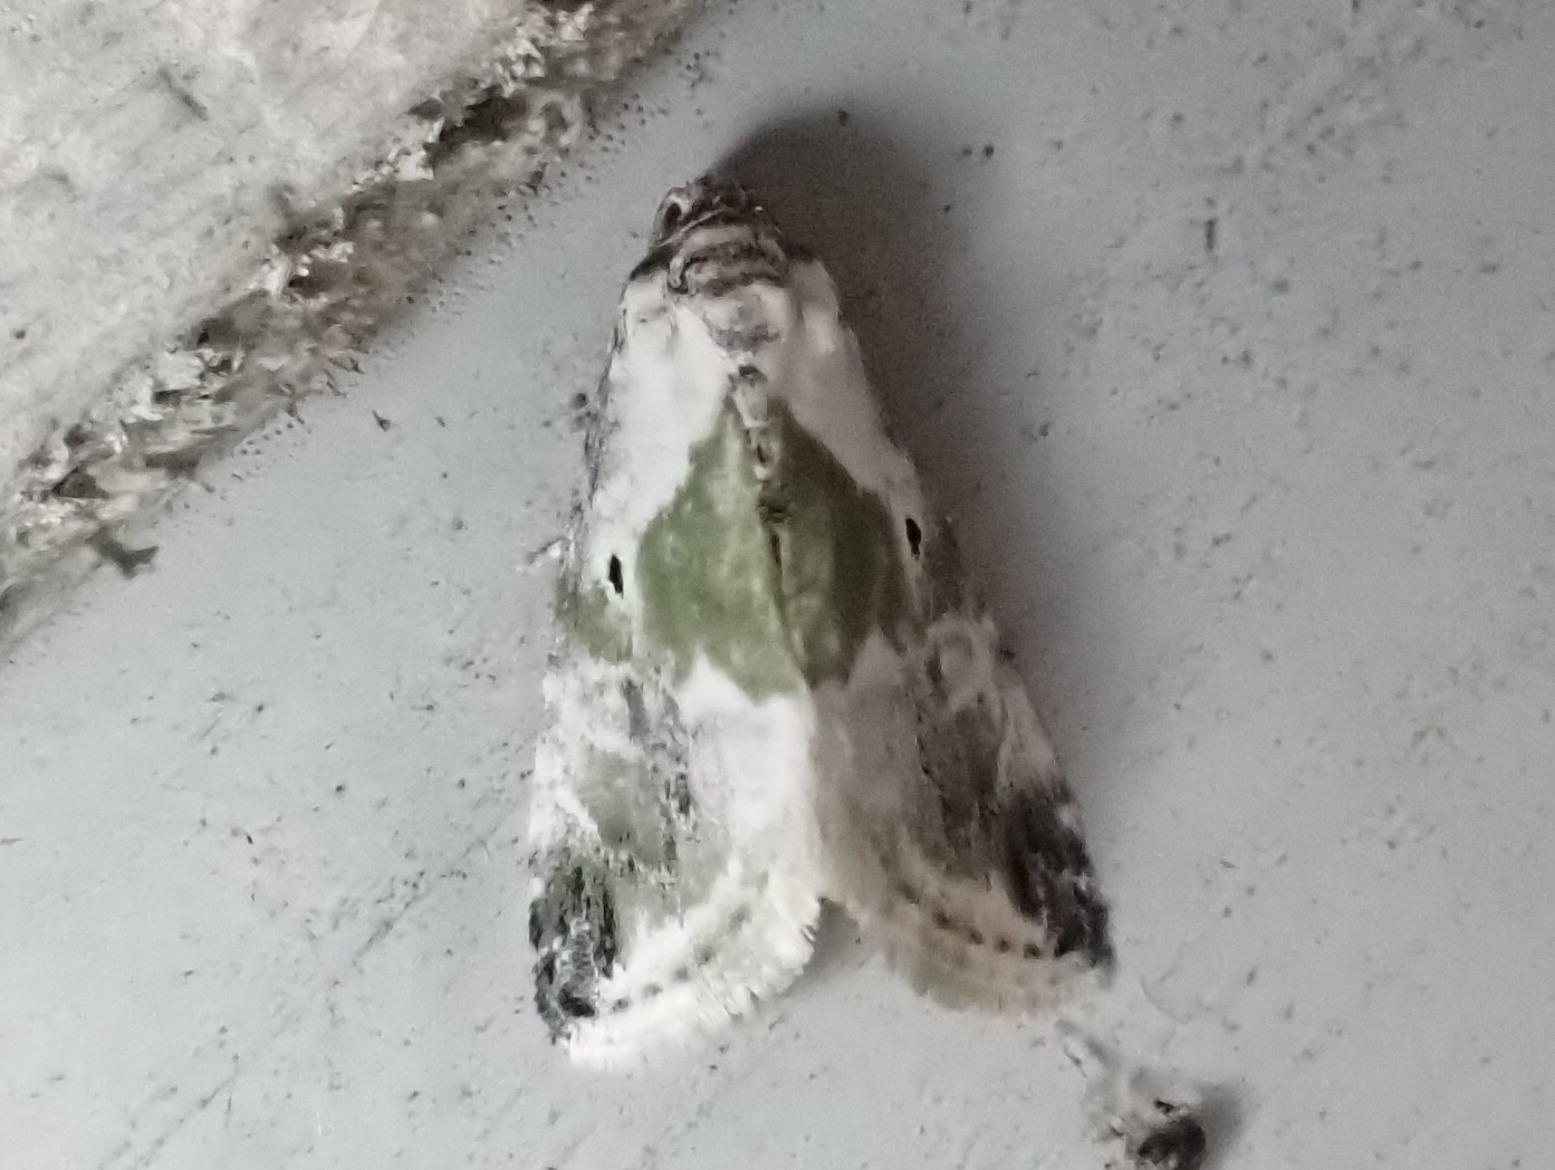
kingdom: Animalia
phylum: Arthropoda
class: Insecta
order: Lepidoptera
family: Noctuidae
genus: Maliattha
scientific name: Maliattha synochitis
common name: Black-dotted glyph
